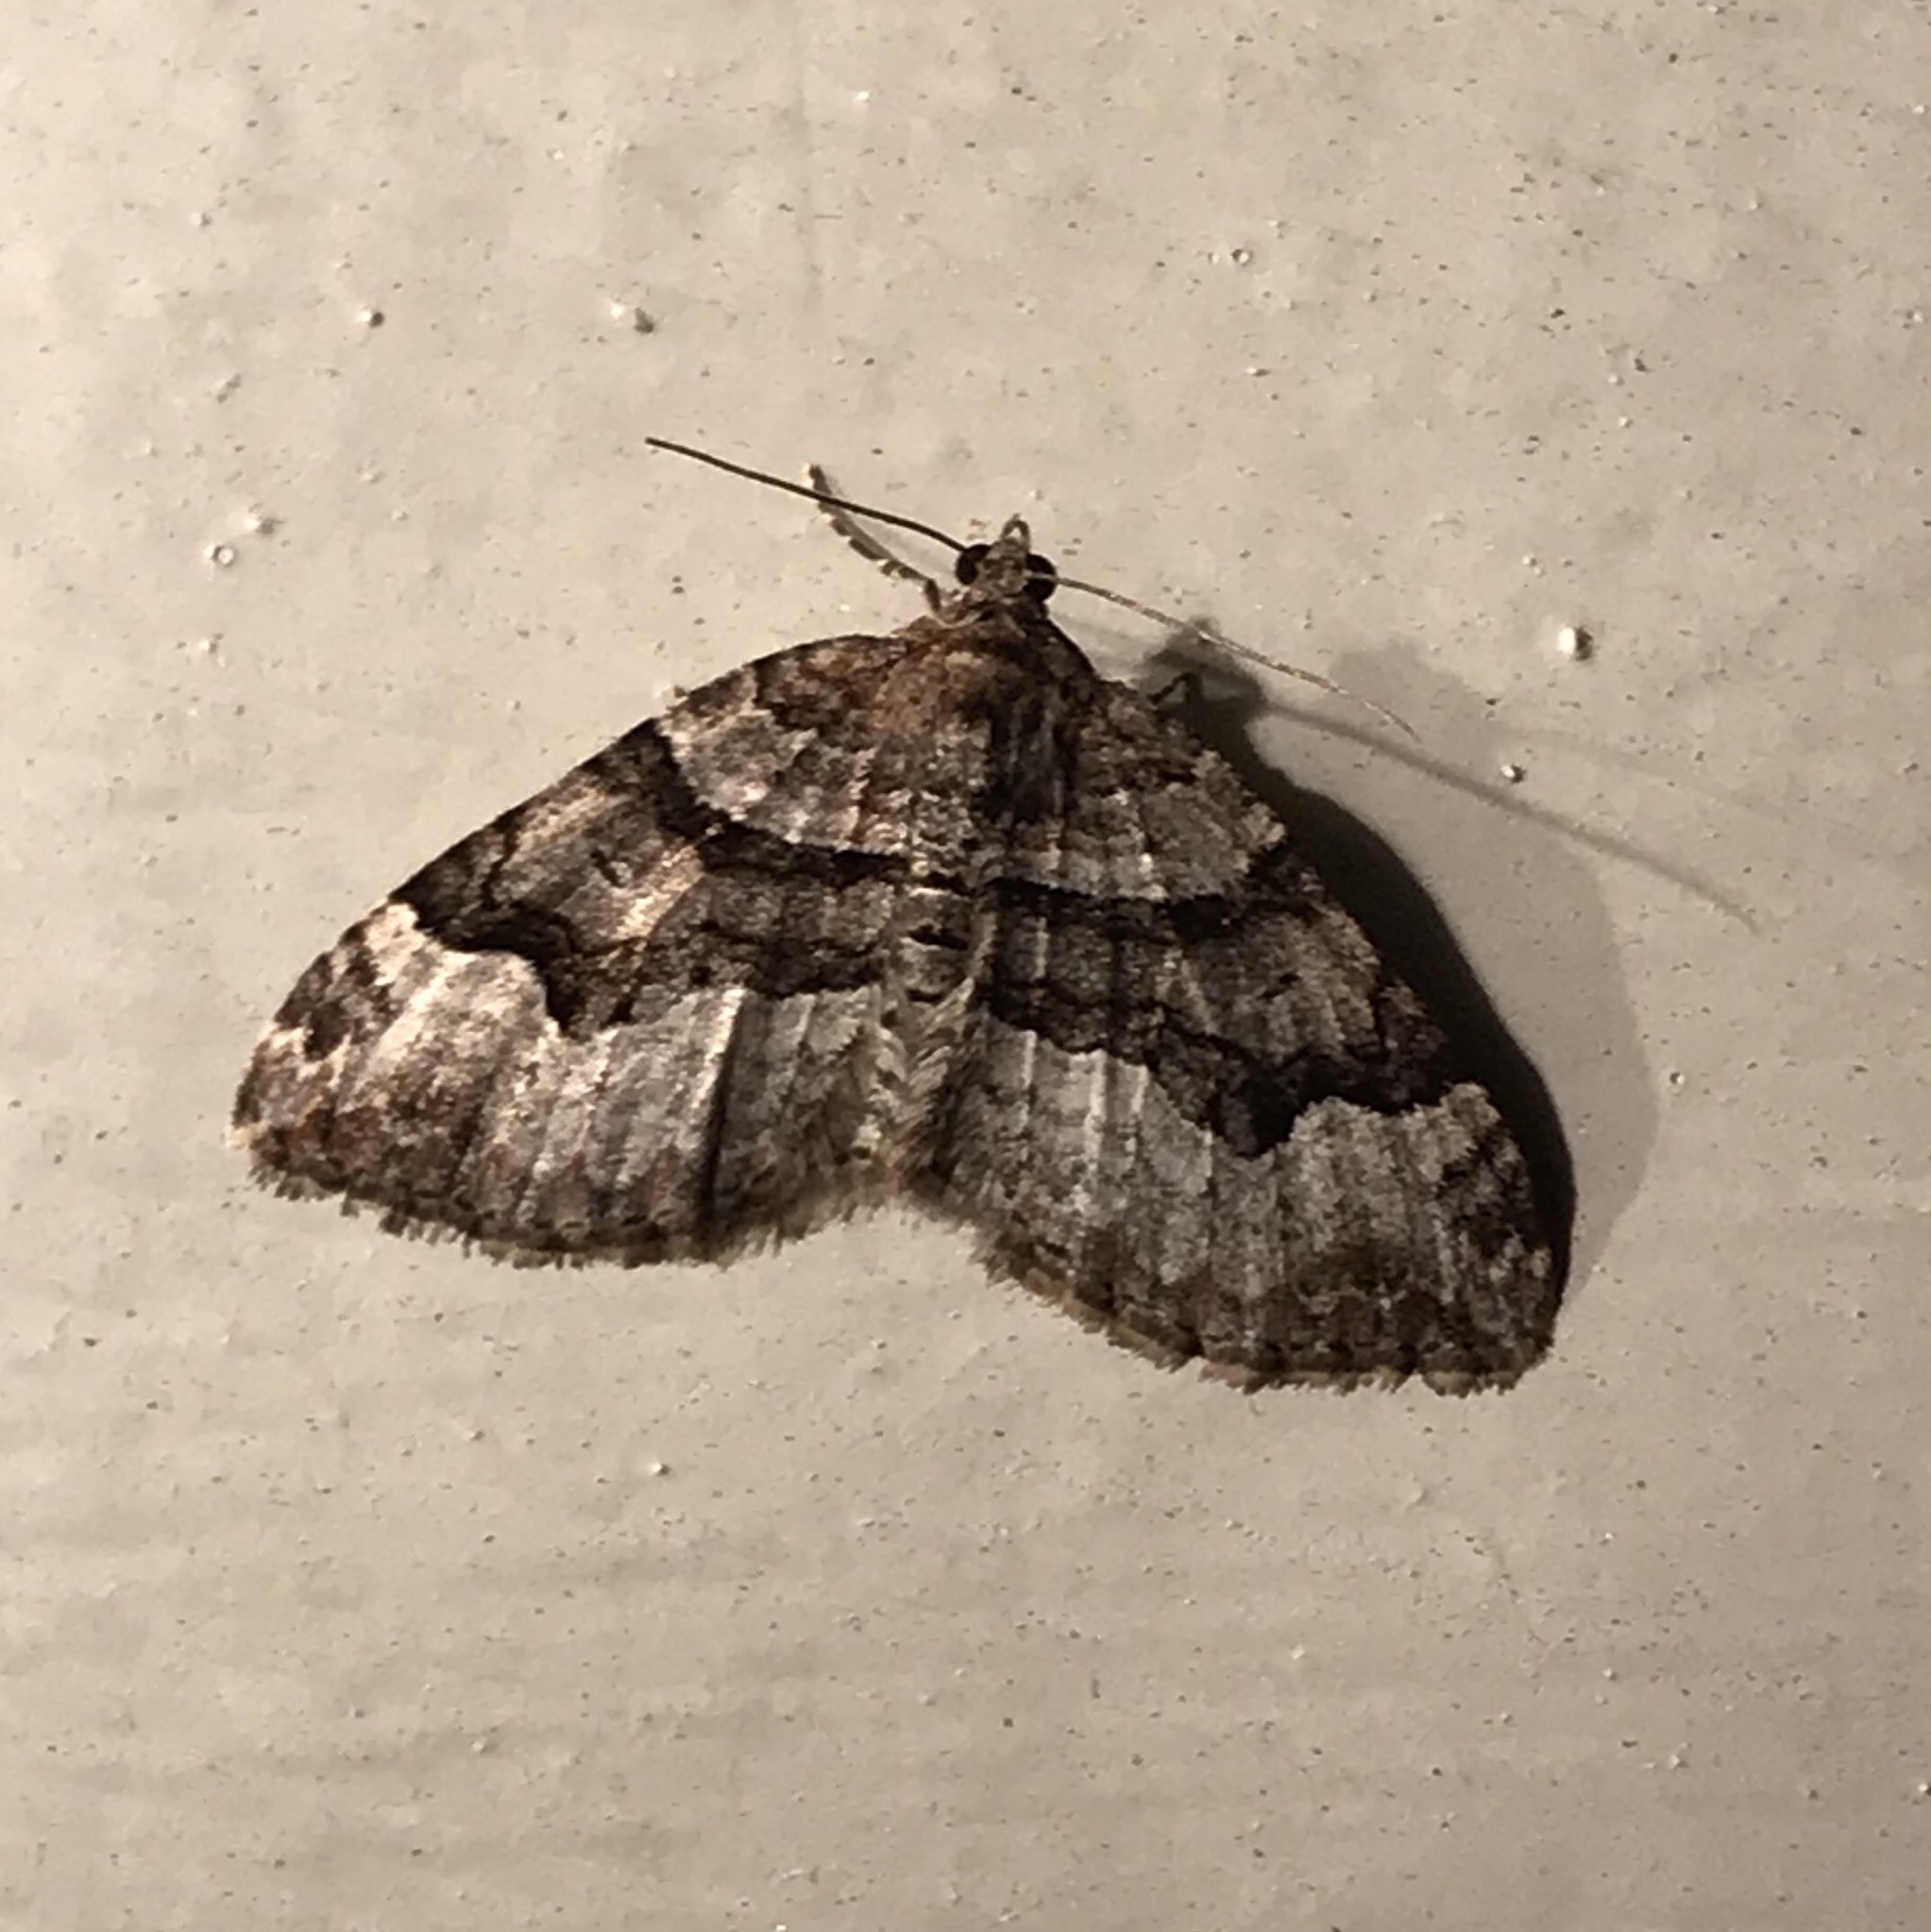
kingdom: Animalia
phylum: Arthropoda
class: Insecta
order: Lepidoptera
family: Geometridae
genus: Xanthorhoe
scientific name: Xanthorhoe lacustrata
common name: Toothed brown carpet
